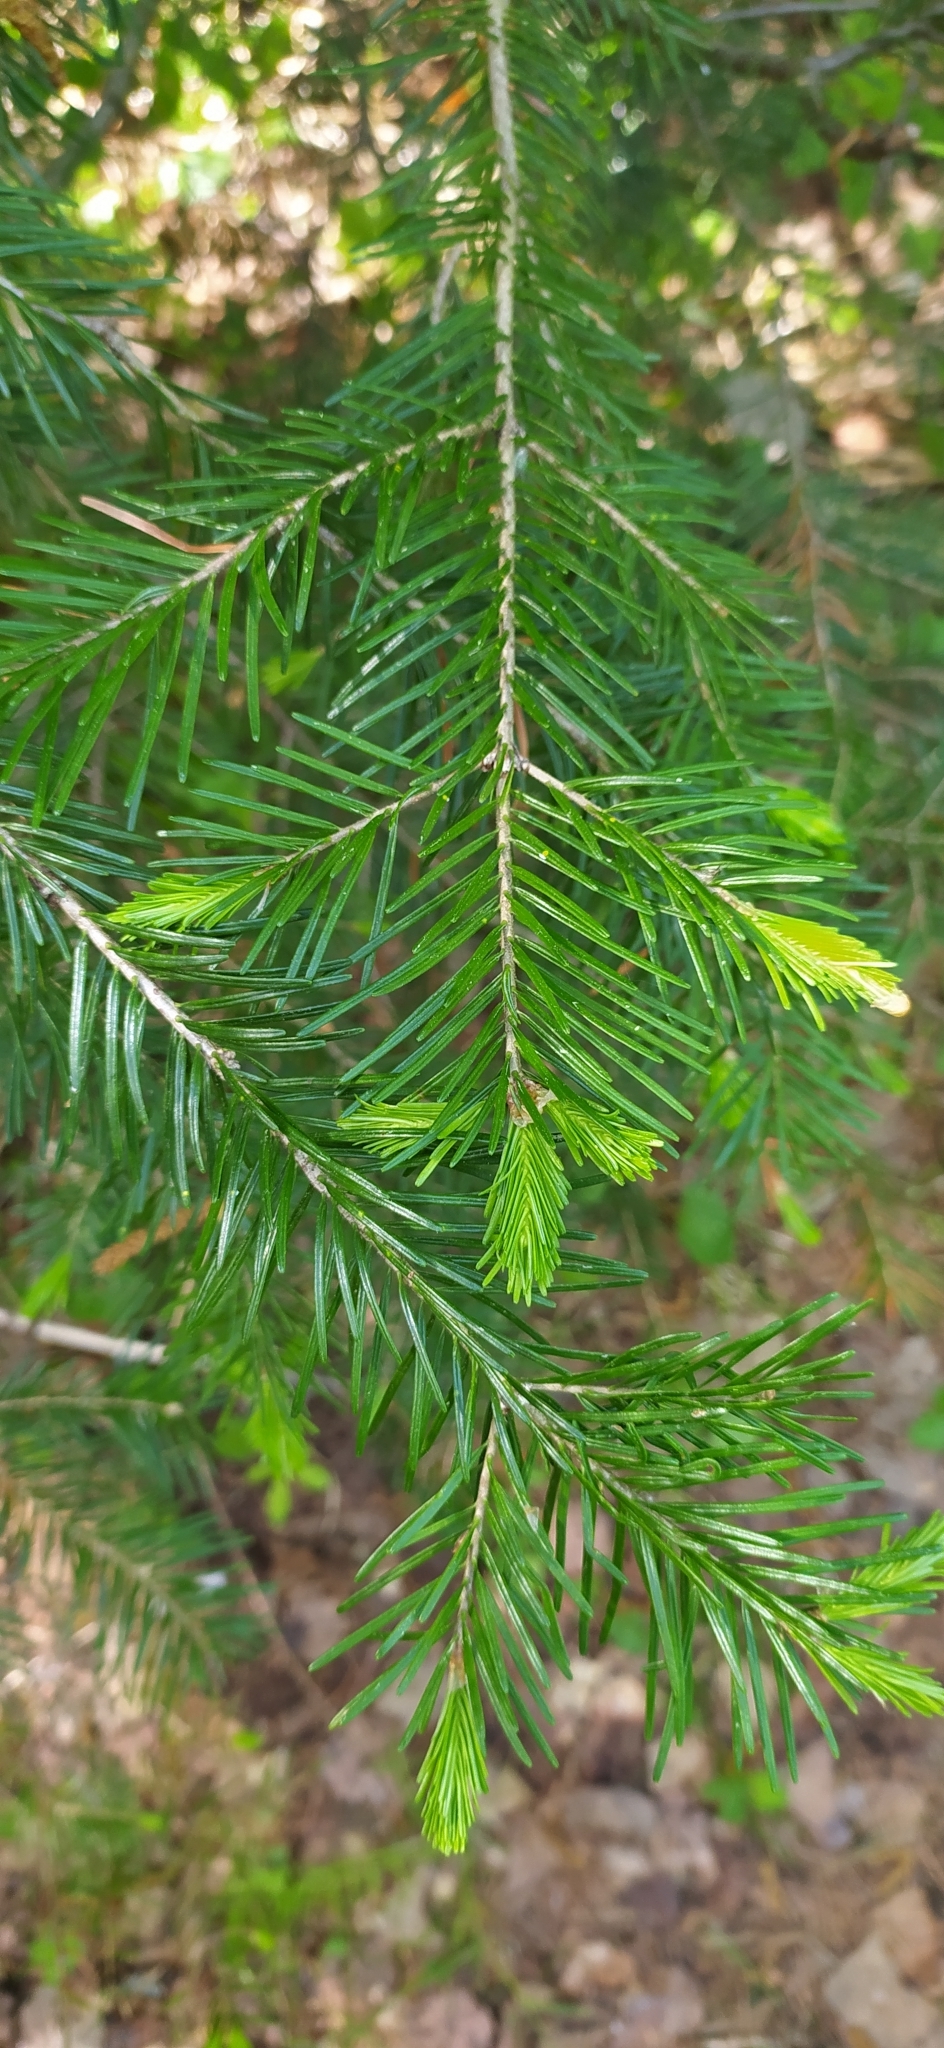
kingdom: Plantae
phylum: Tracheophyta
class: Pinopsida
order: Pinales
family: Pinaceae
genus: Abies
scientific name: Abies sibirica
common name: Siberian fir
